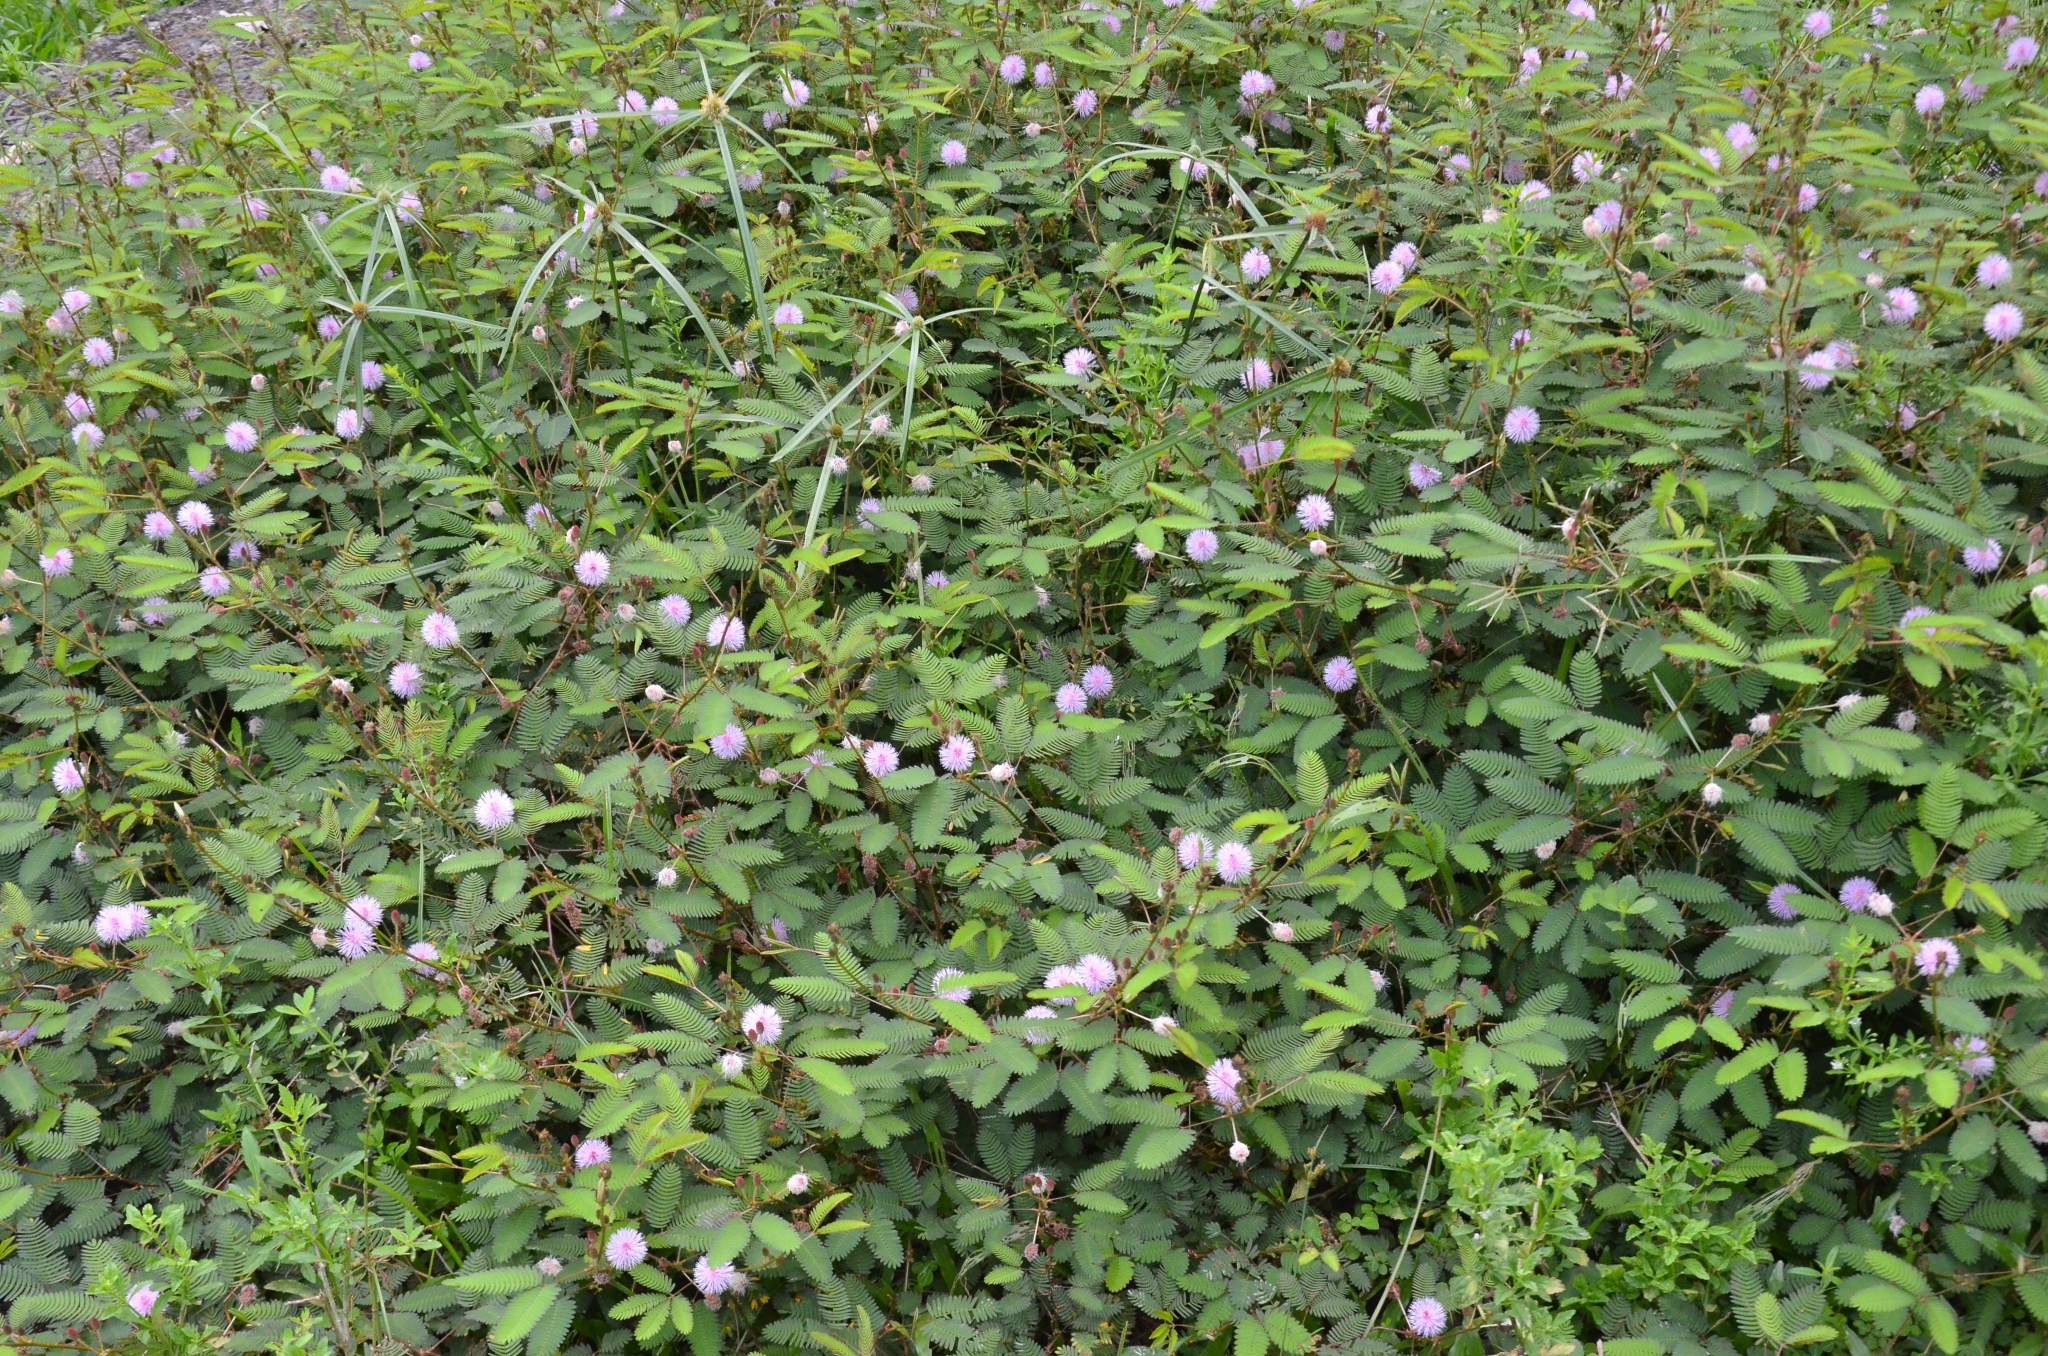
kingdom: Plantae
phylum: Tracheophyta
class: Magnoliopsida
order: Fabales
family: Fabaceae
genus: Mimosa
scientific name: Mimosa pudica
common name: Sensitive plant
